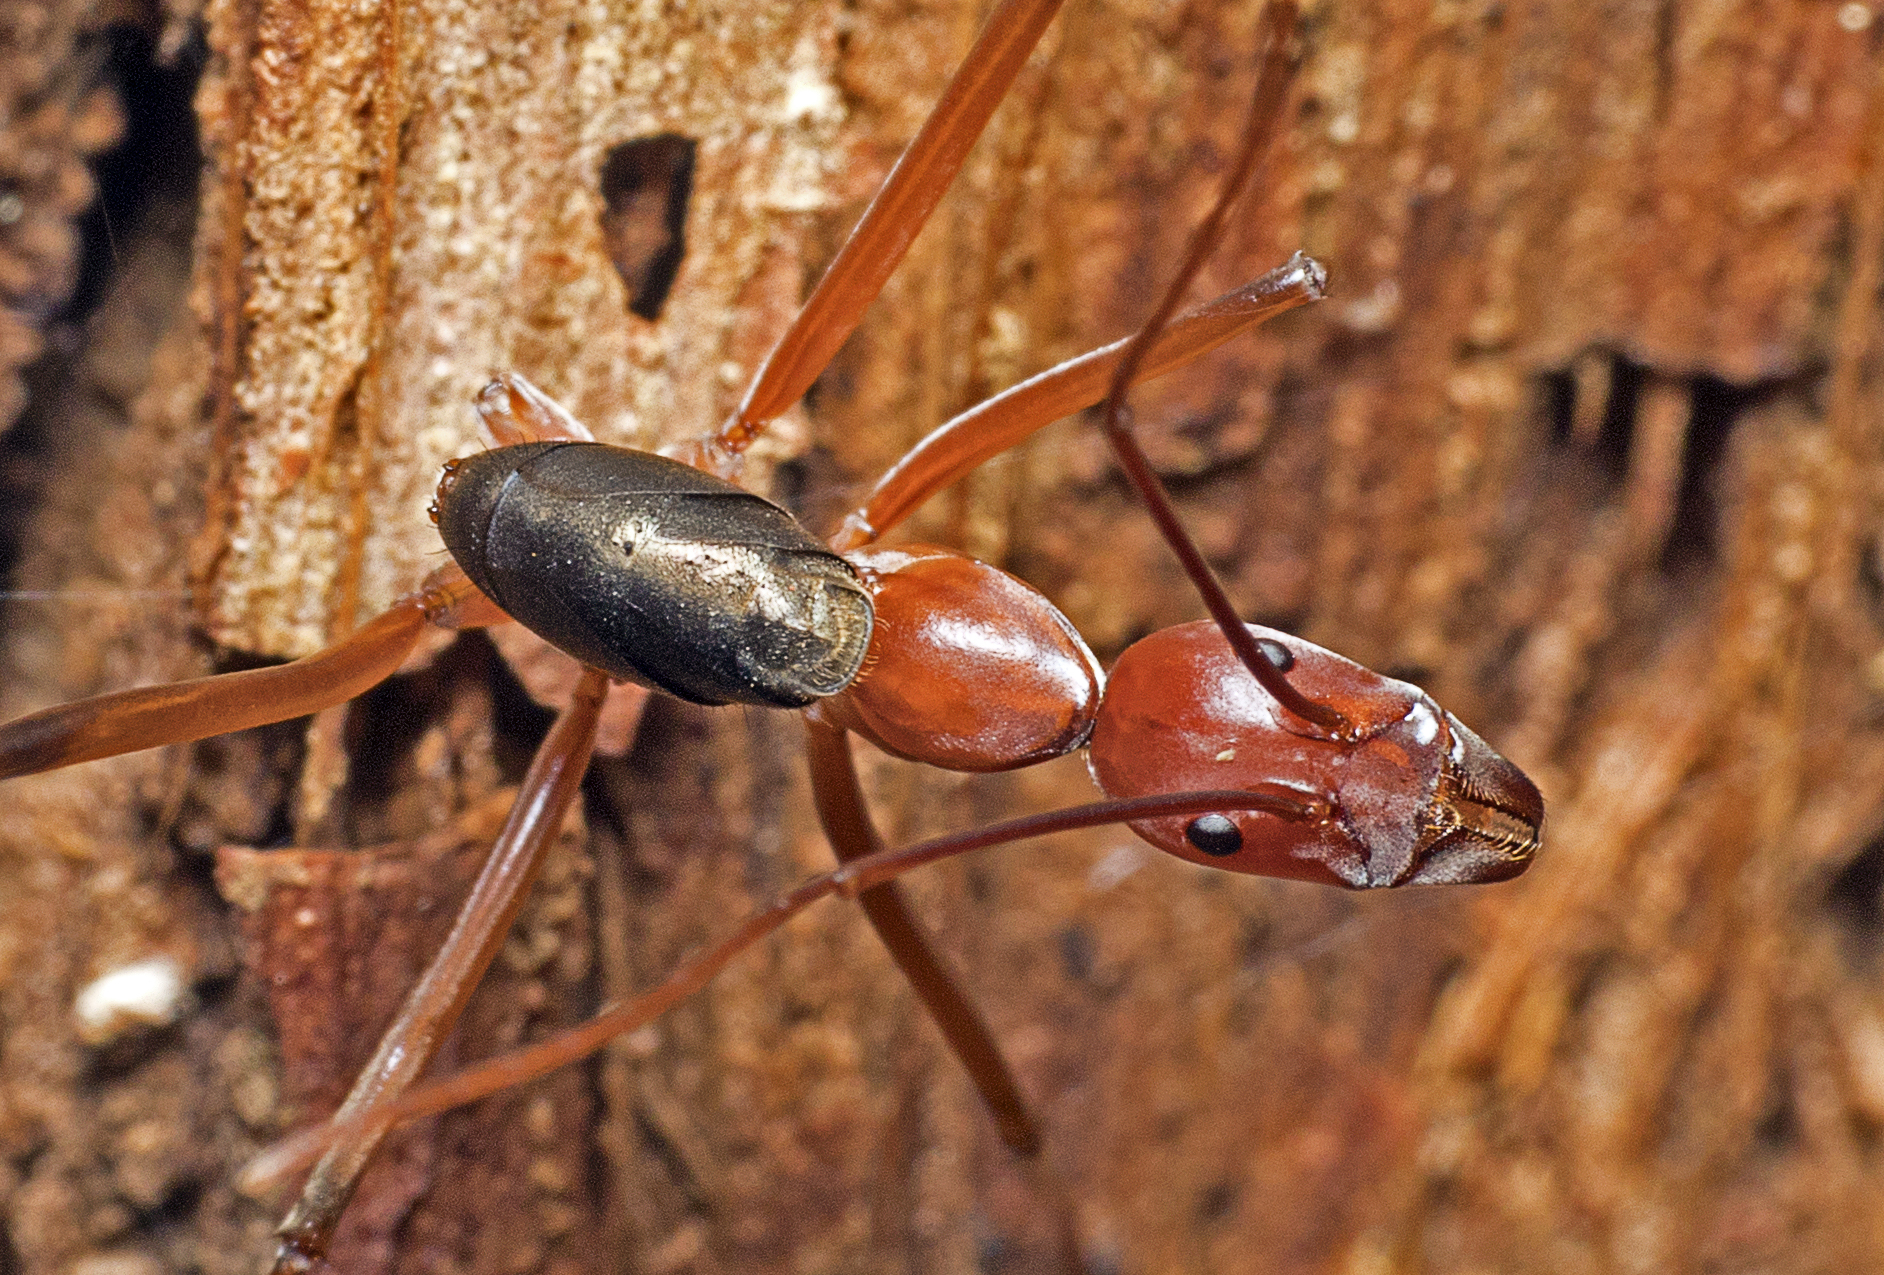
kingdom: Animalia
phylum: Arthropoda
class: Insecta
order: Hymenoptera
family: Formicidae
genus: Leptomyrmex
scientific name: Leptomyrmex tibialis
